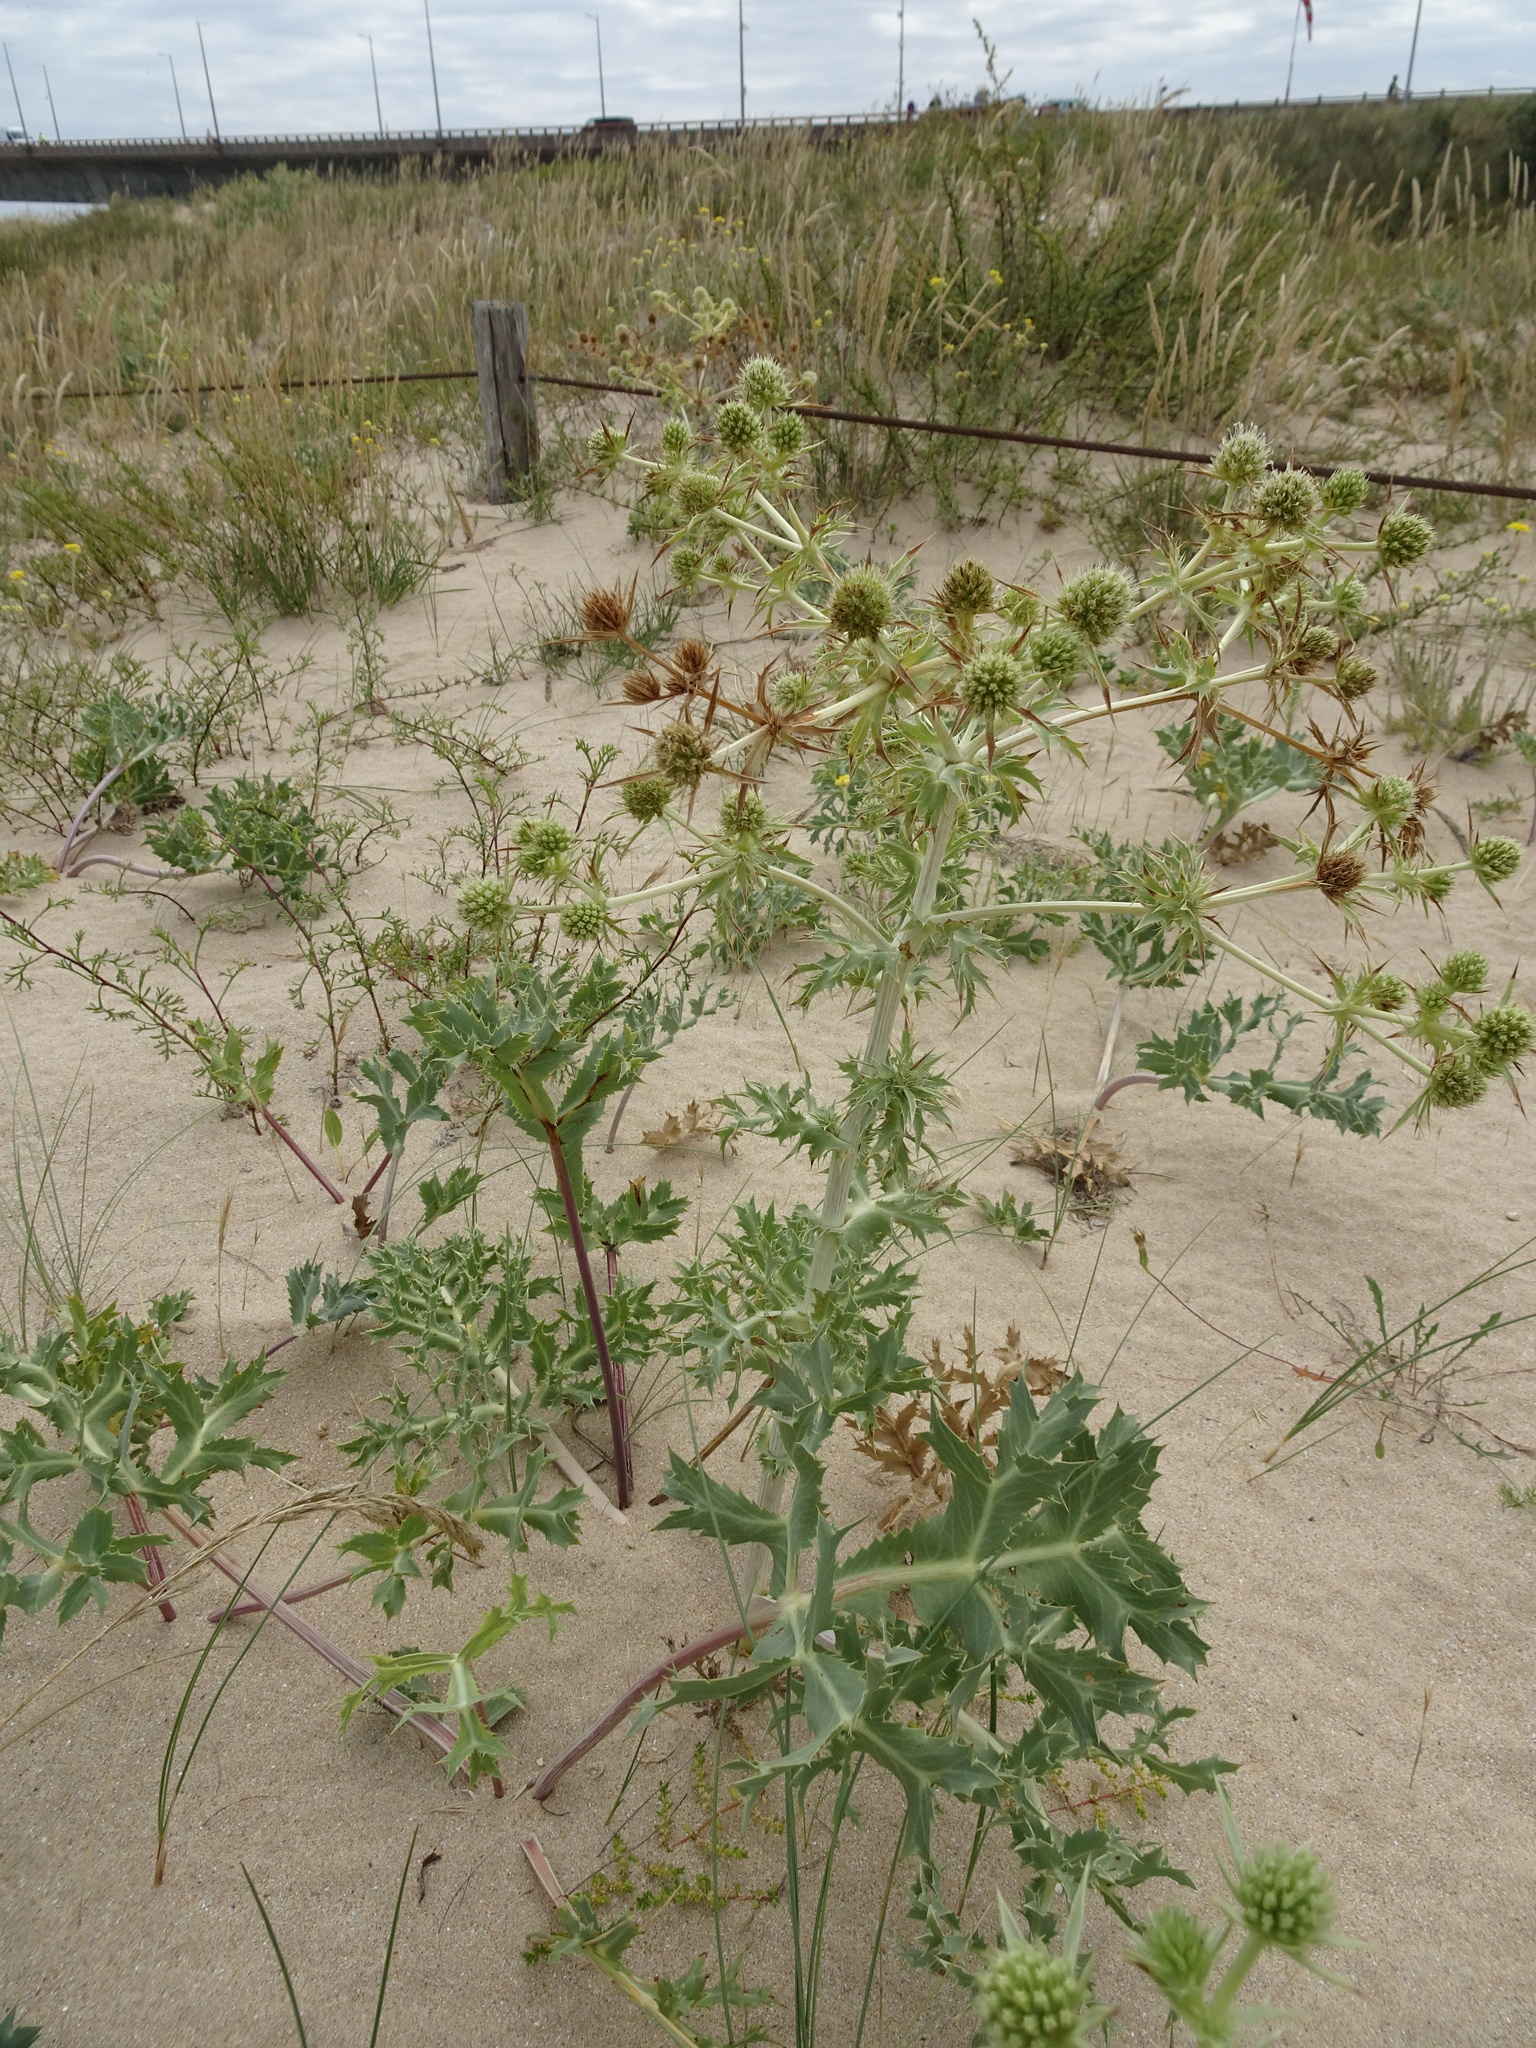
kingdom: Plantae
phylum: Tracheophyta
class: Magnoliopsida
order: Apiales
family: Apiaceae
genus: Eryngium
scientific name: Eryngium campestre
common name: Field eryngo
